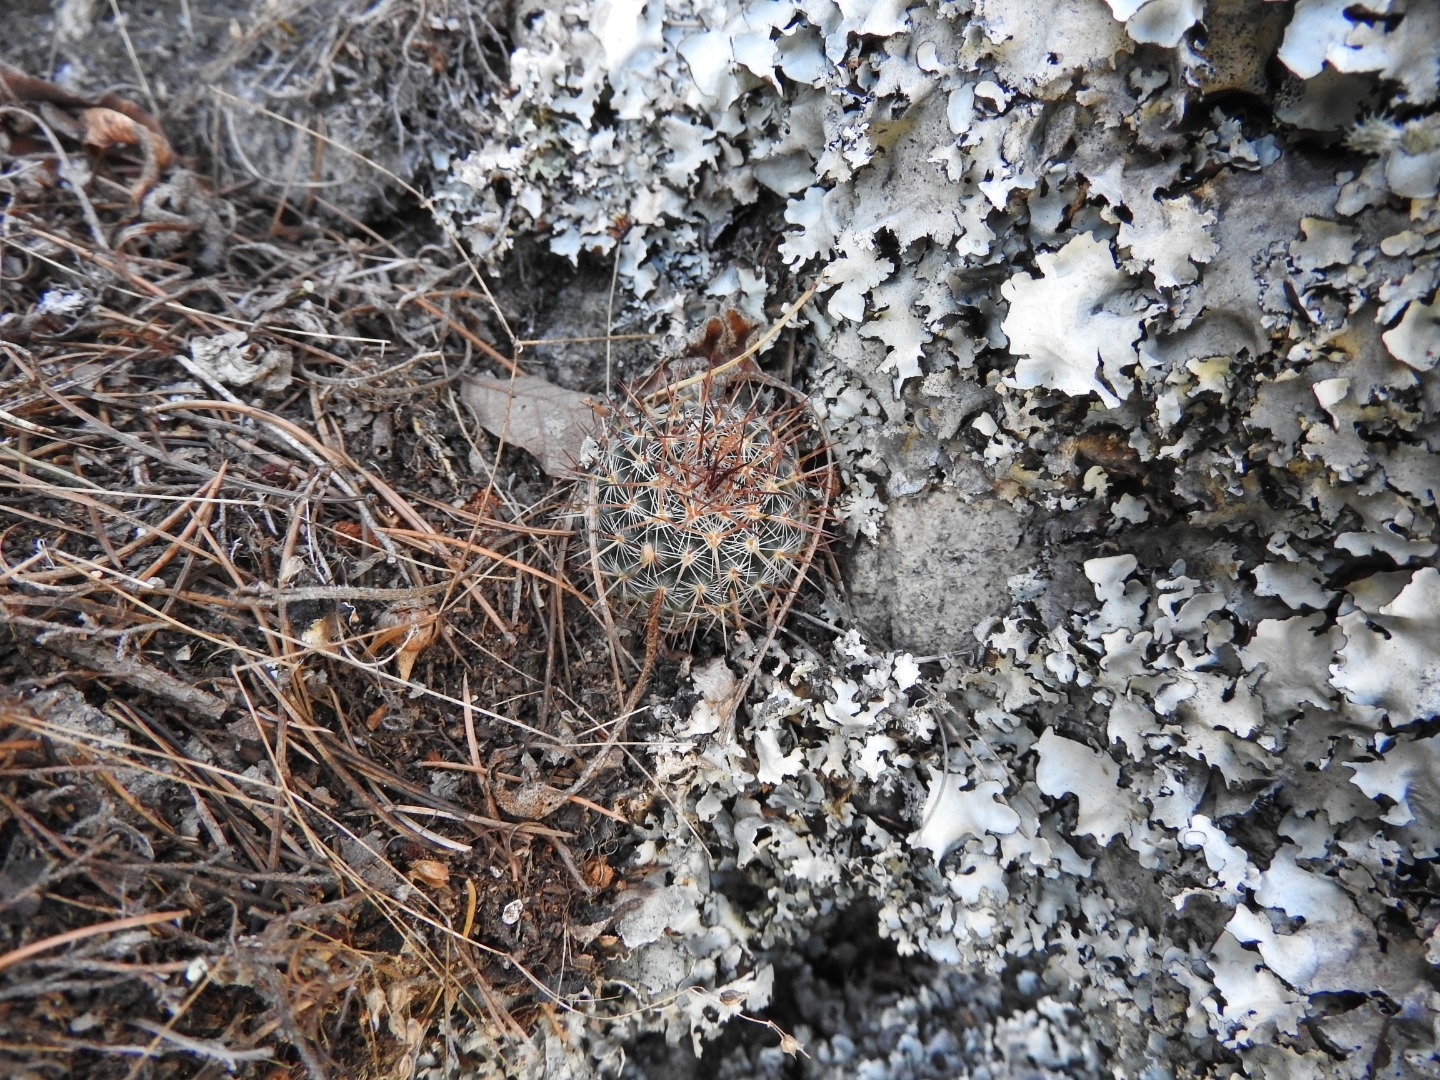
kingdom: Plantae
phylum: Tracheophyta
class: Magnoliopsida
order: Caryophyllales
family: Cactaceae
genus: Mammillaria
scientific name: Mammillaria petterssonii
